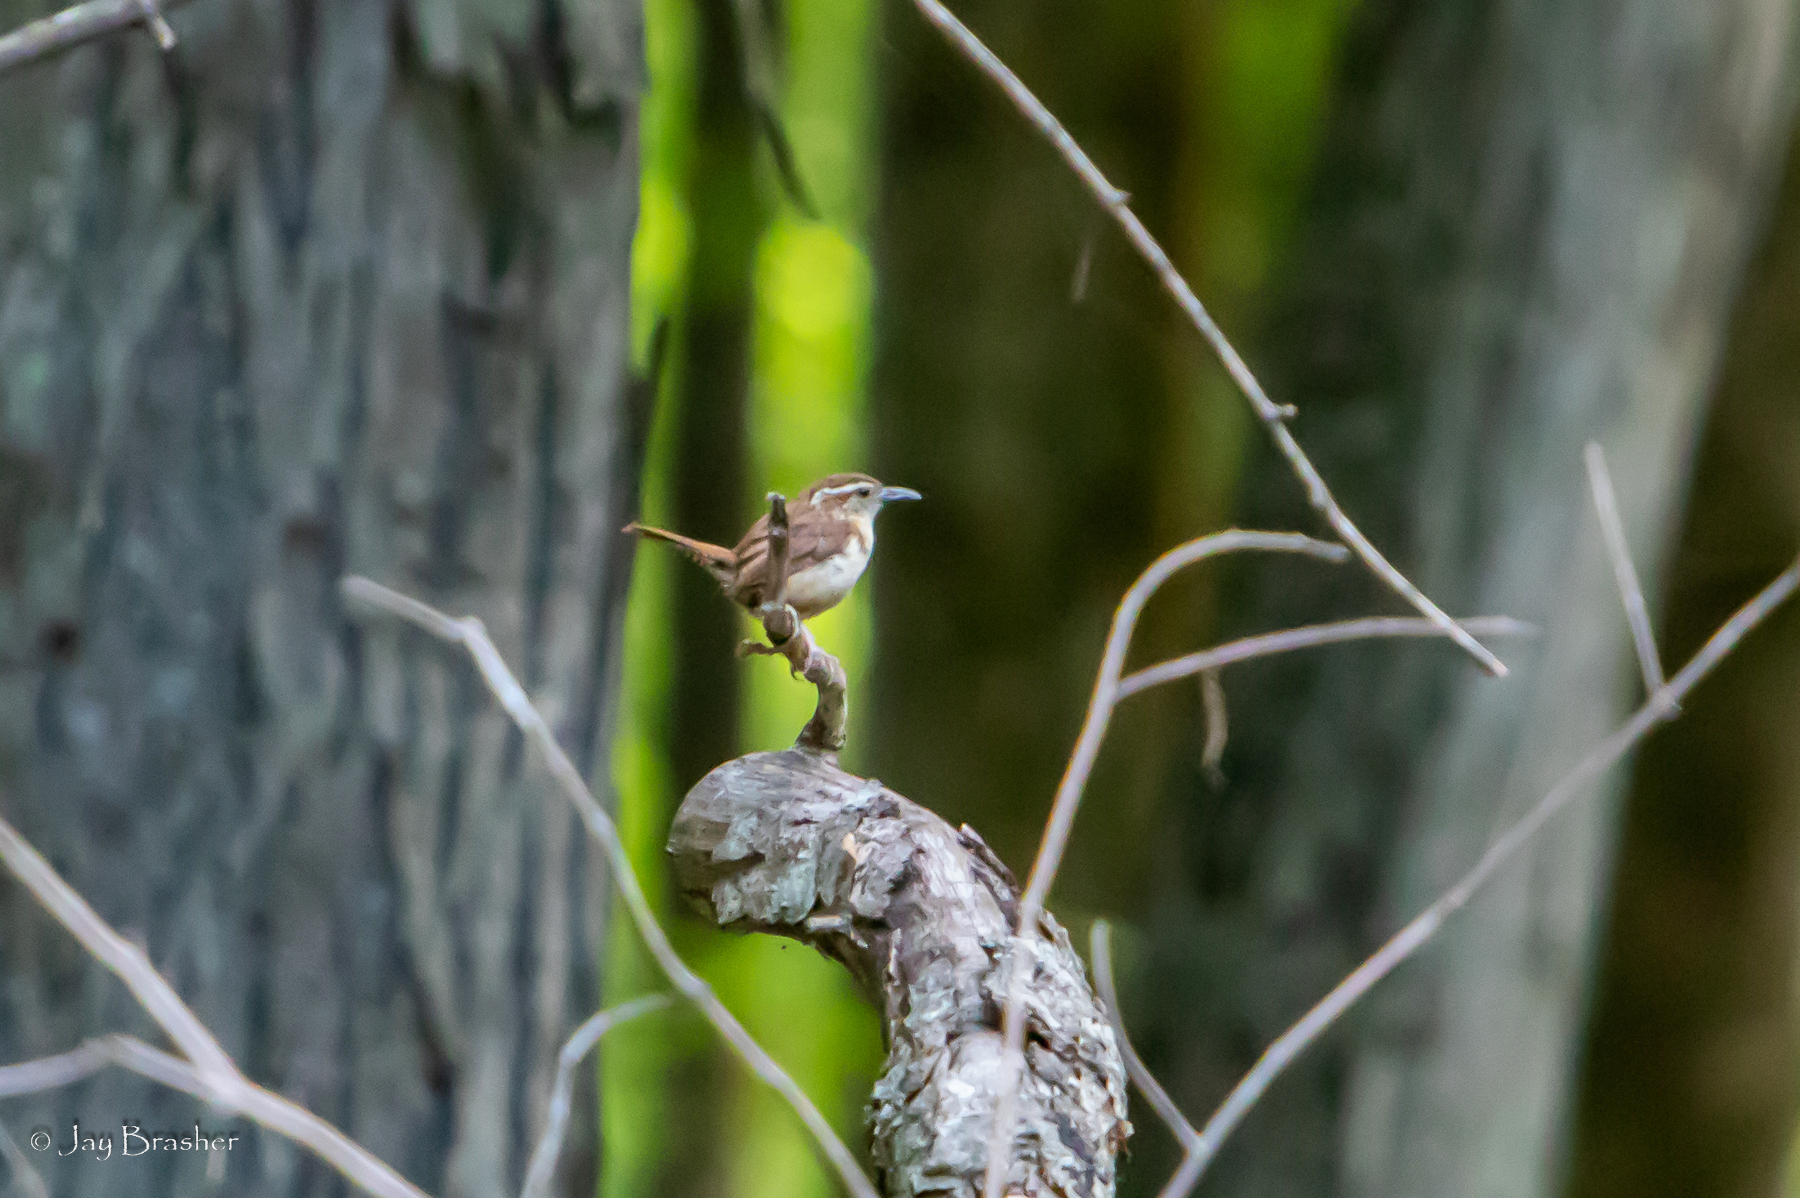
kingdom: Animalia
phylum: Chordata
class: Aves
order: Passeriformes
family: Troglodytidae
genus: Thryothorus
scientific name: Thryothorus ludovicianus
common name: Carolina wren
